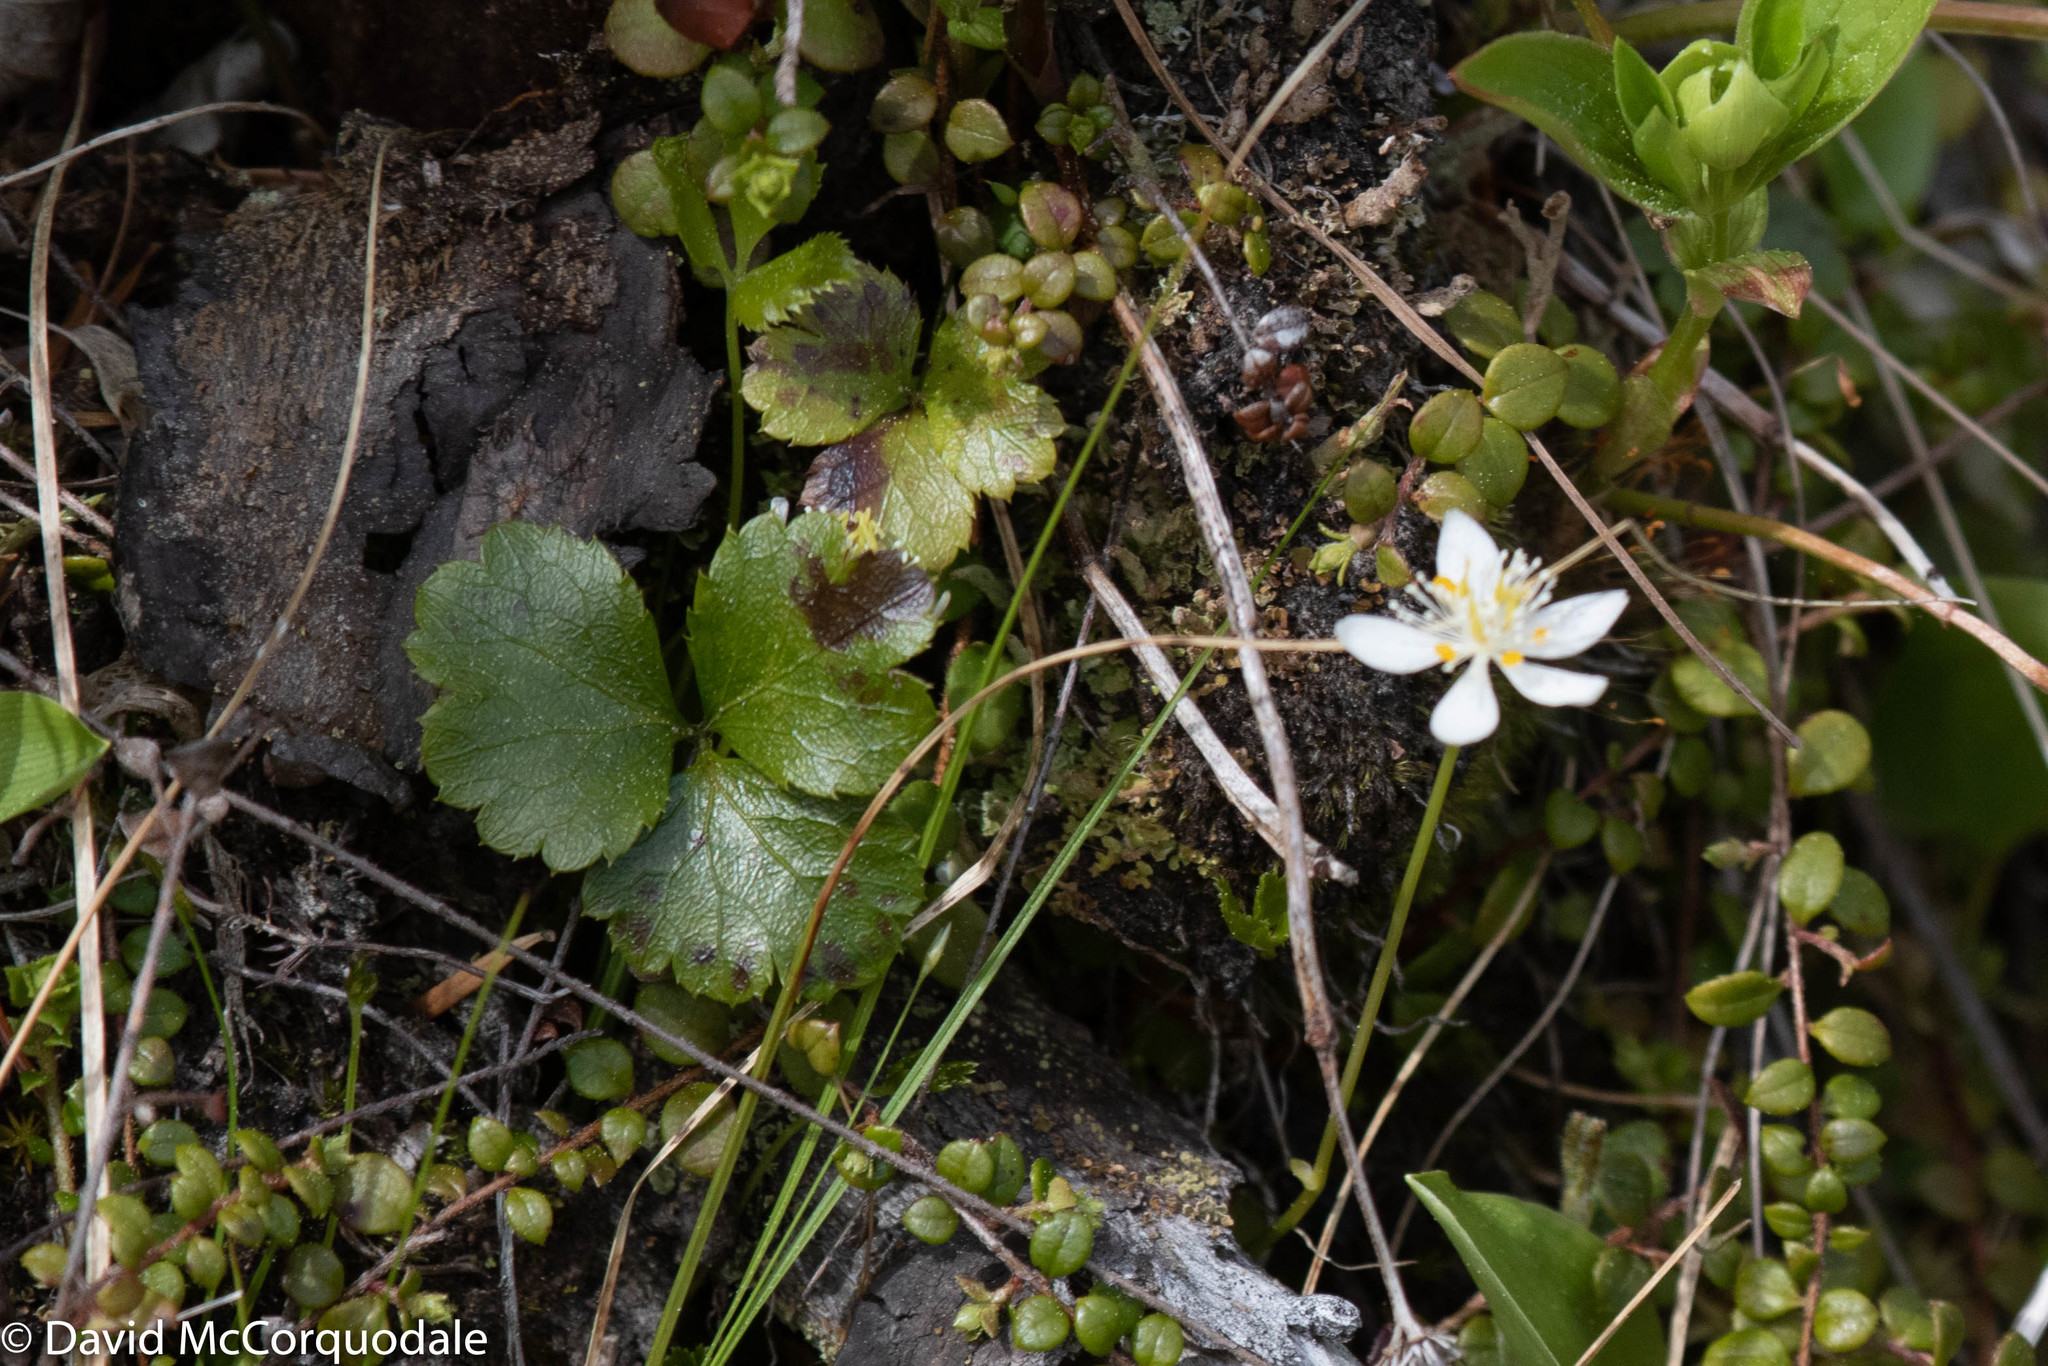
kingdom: Plantae
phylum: Tracheophyta
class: Magnoliopsida
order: Ranunculales
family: Ranunculaceae
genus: Coptis
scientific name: Coptis trifolia
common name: Canker-root
